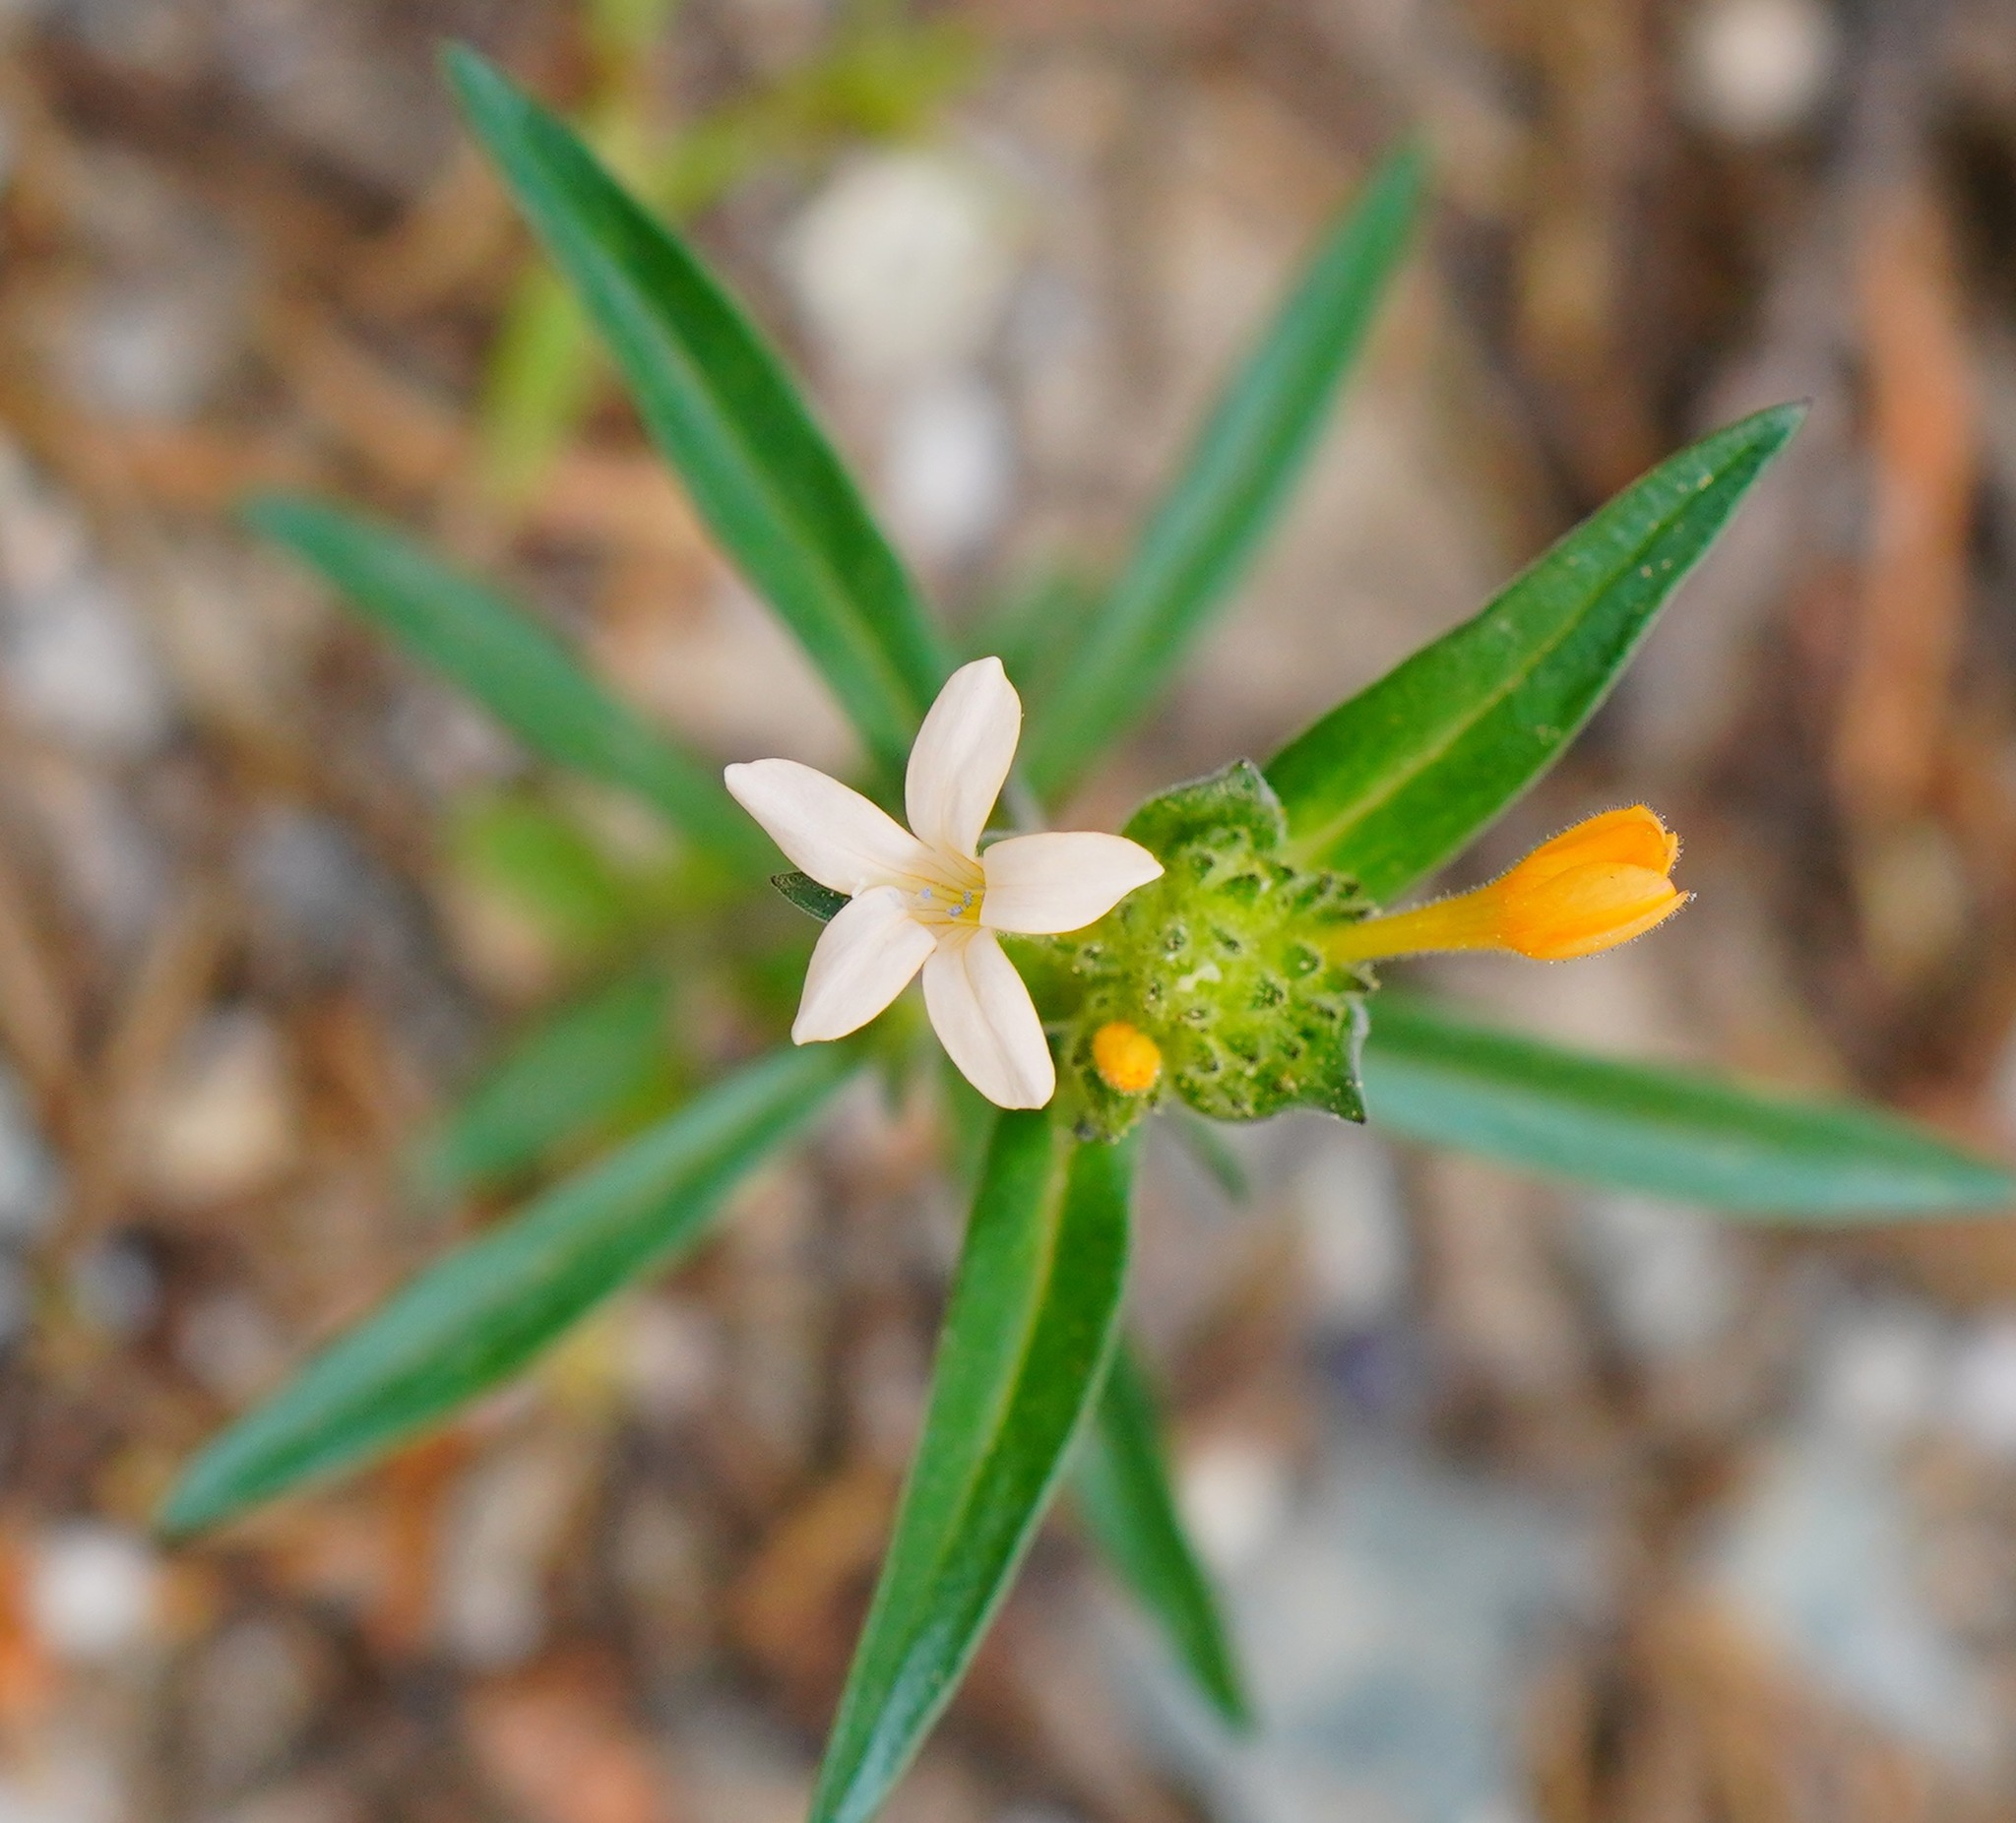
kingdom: Plantae
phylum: Tracheophyta
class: Magnoliopsida
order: Ericales
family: Polemoniaceae
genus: Collomia
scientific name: Collomia grandiflora
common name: California strawflower
